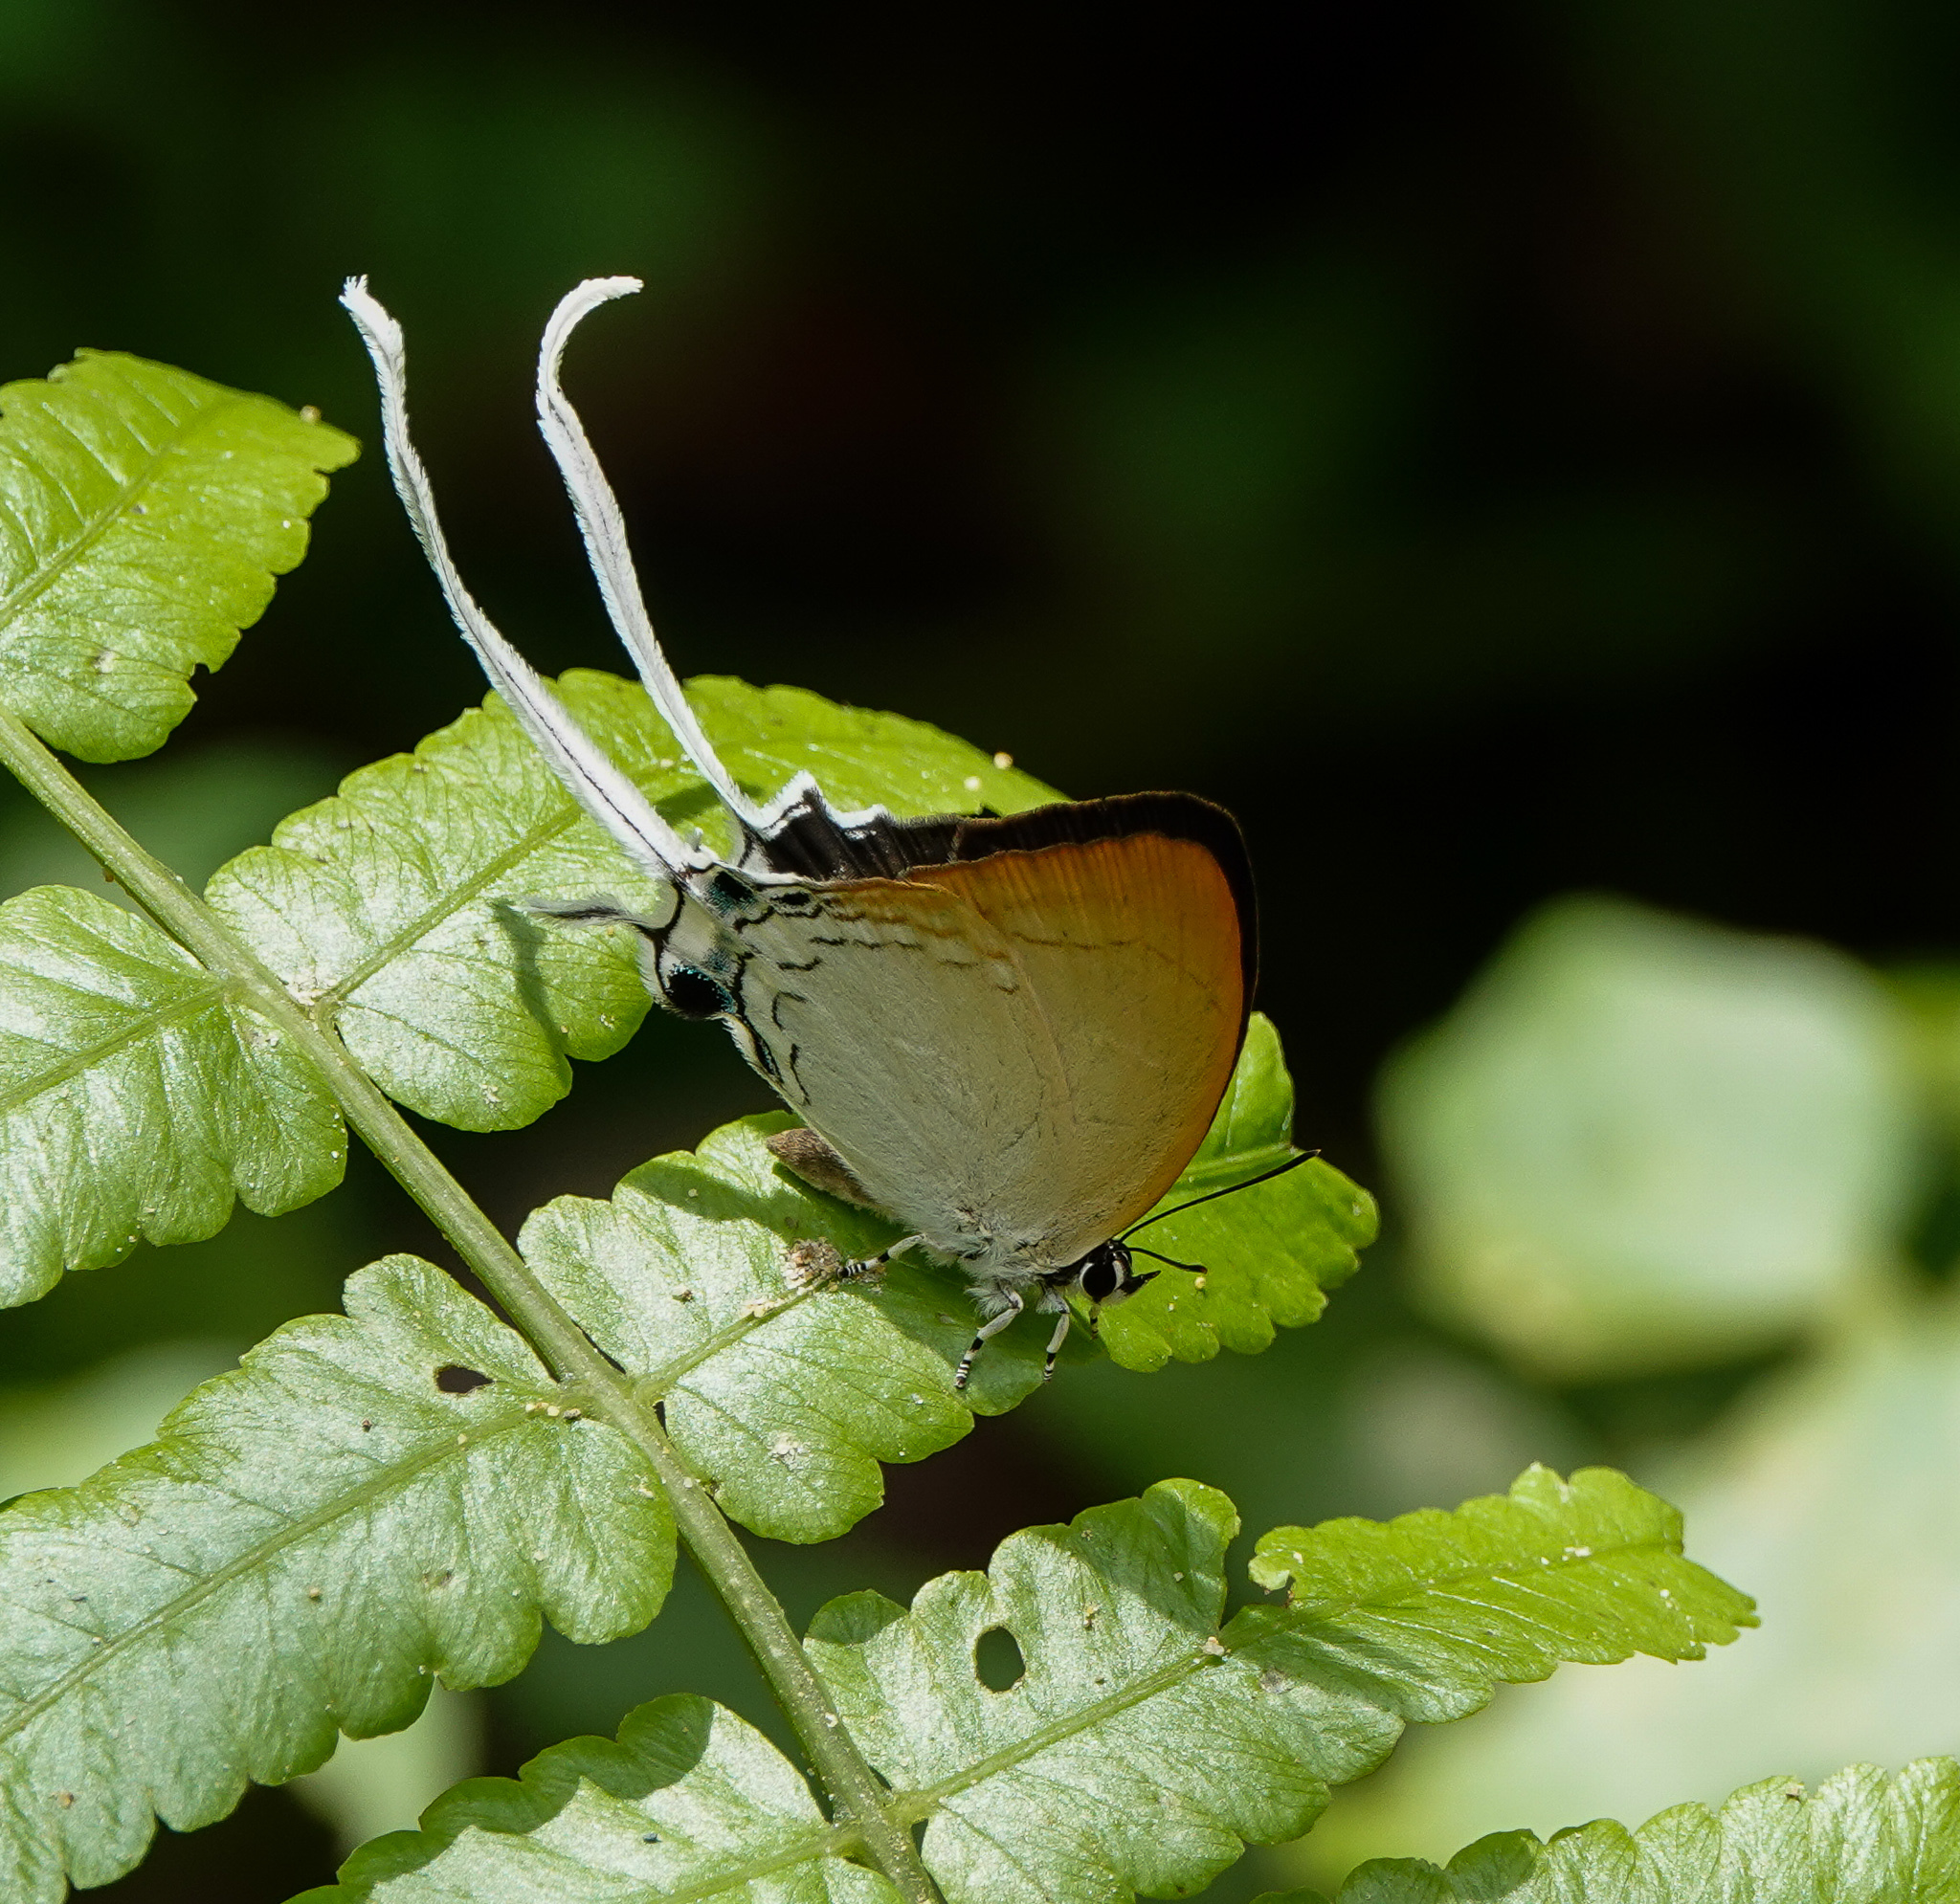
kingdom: Animalia
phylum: Arthropoda
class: Insecta
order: Lepidoptera
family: Lycaenidae
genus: Cheritra
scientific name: Cheritra freja
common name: Common imperial
